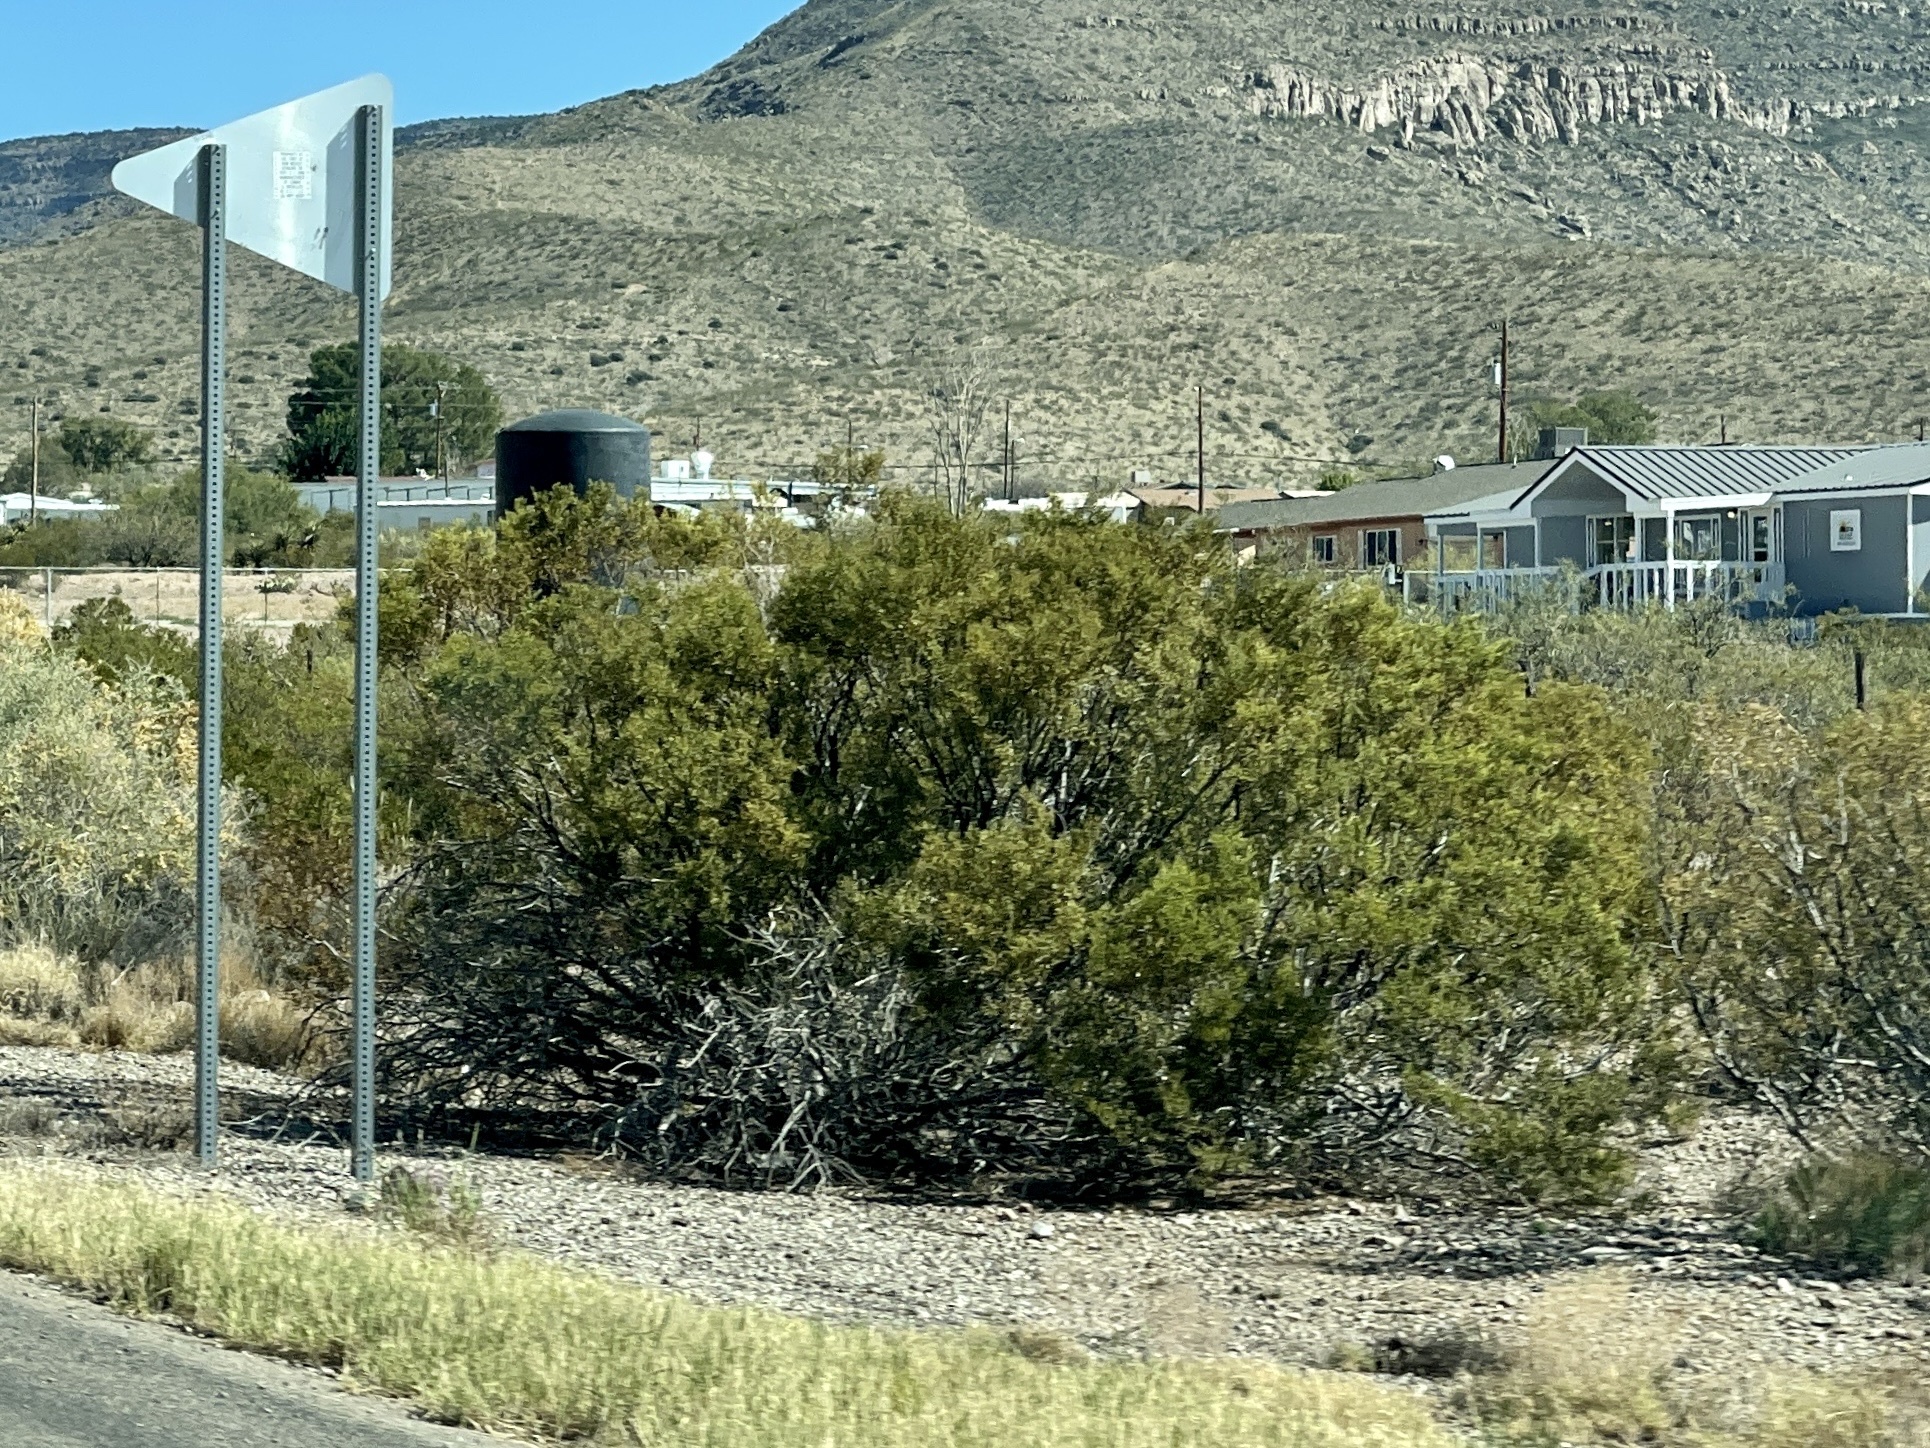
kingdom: Plantae
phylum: Tracheophyta
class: Magnoliopsida
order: Zygophyllales
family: Zygophyllaceae
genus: Larrea
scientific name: Larrea tridentata
